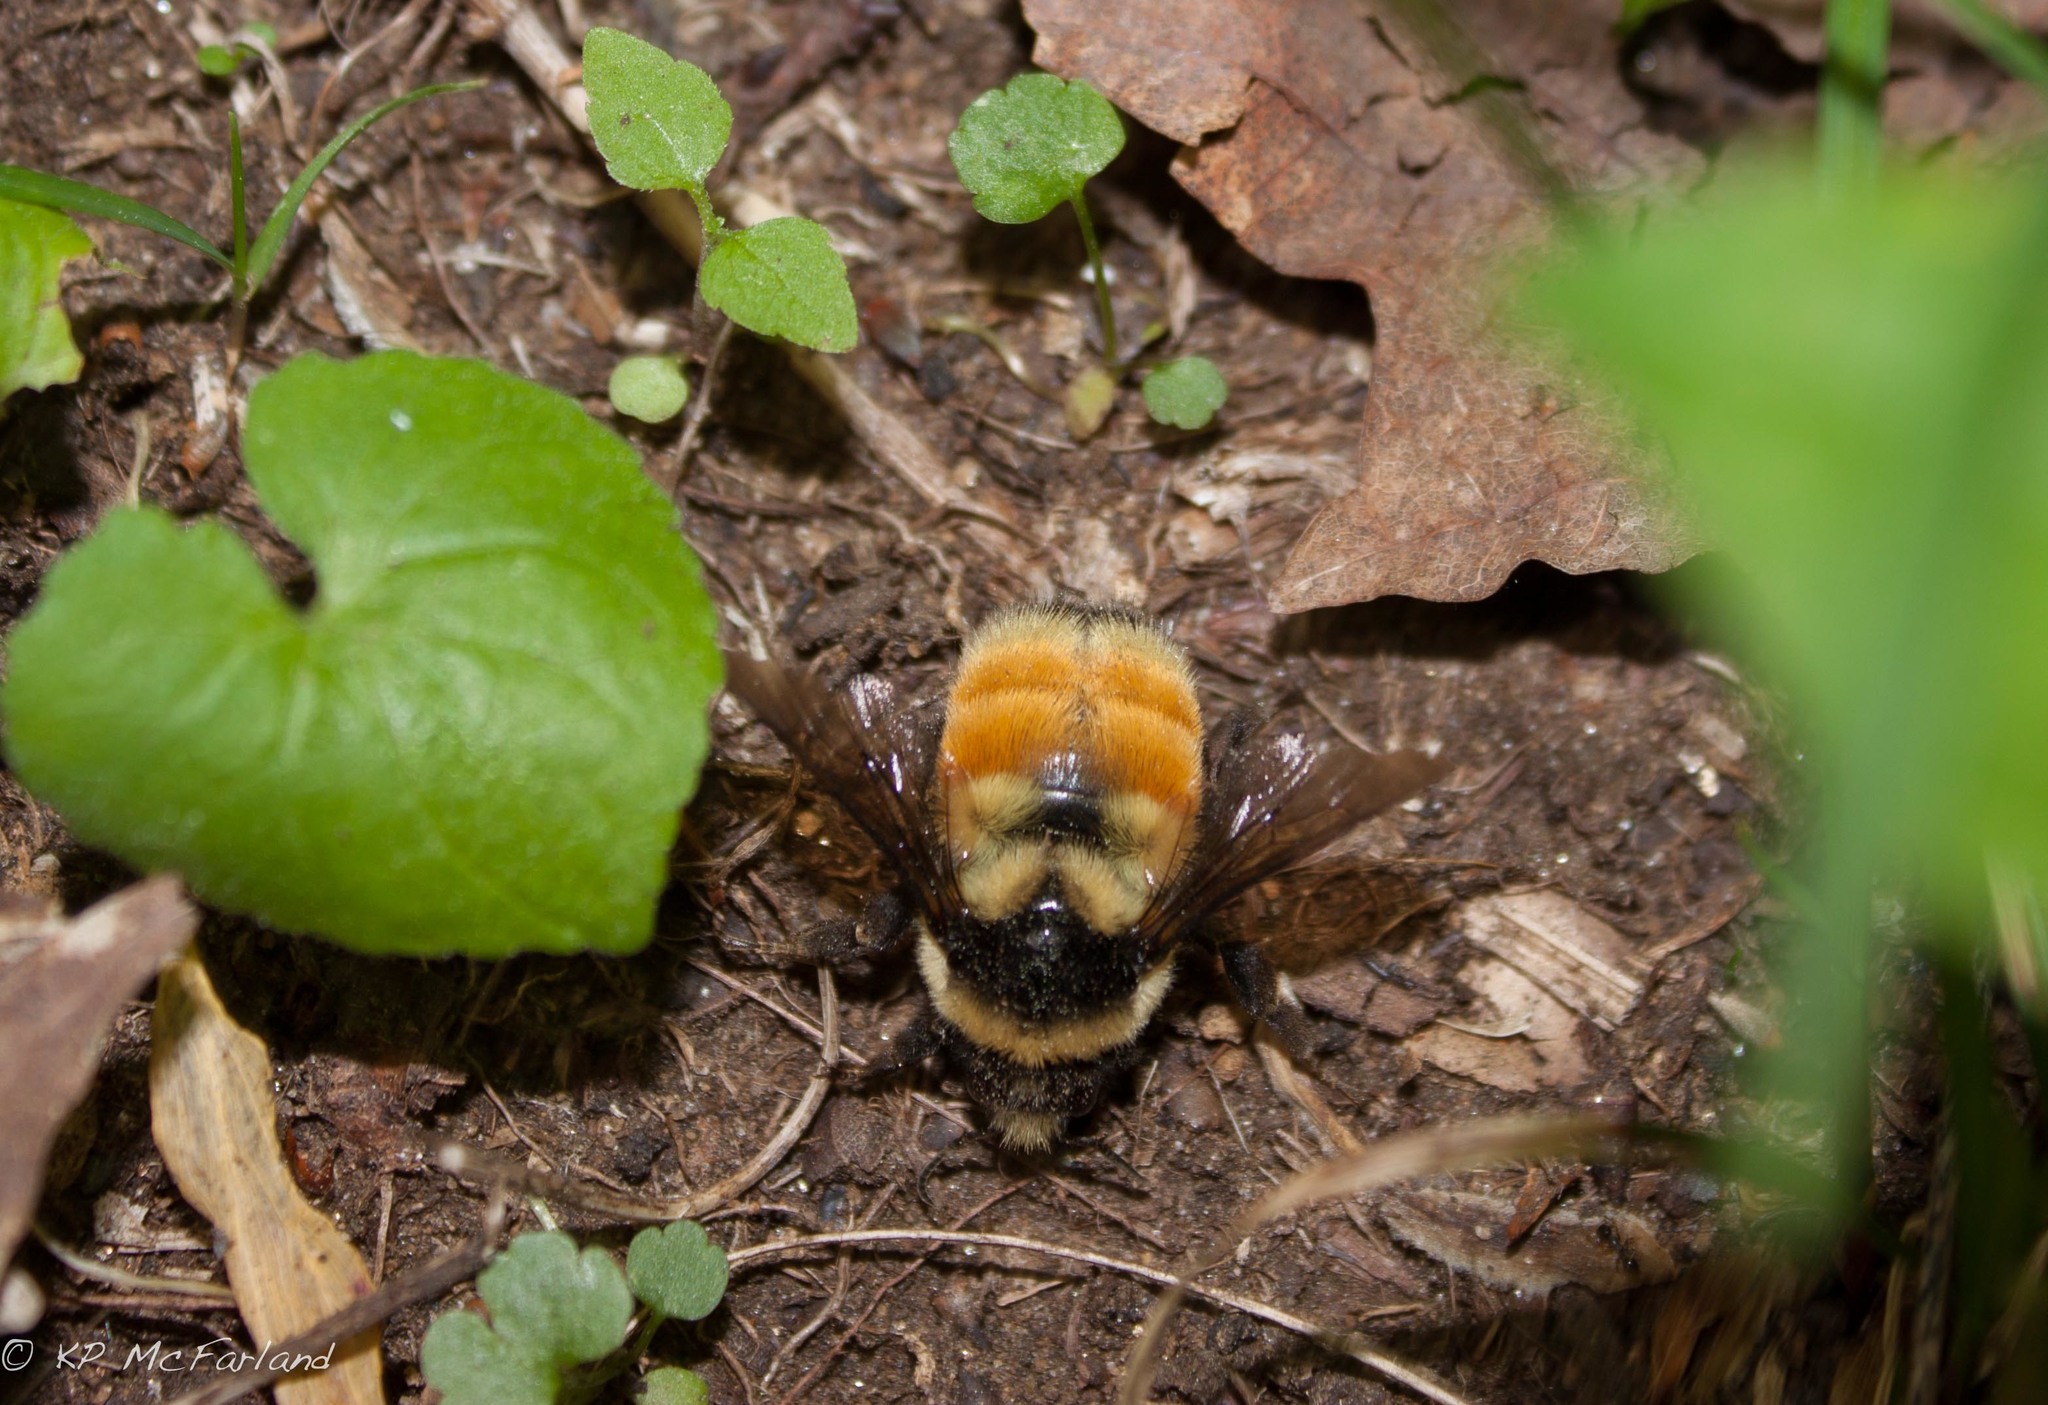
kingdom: Animalia
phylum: Arthropoda
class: Insecta
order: Hymenoptera
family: Apidae
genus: Bombus
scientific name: Bombus ternarius
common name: Tri-colored bumble bee
